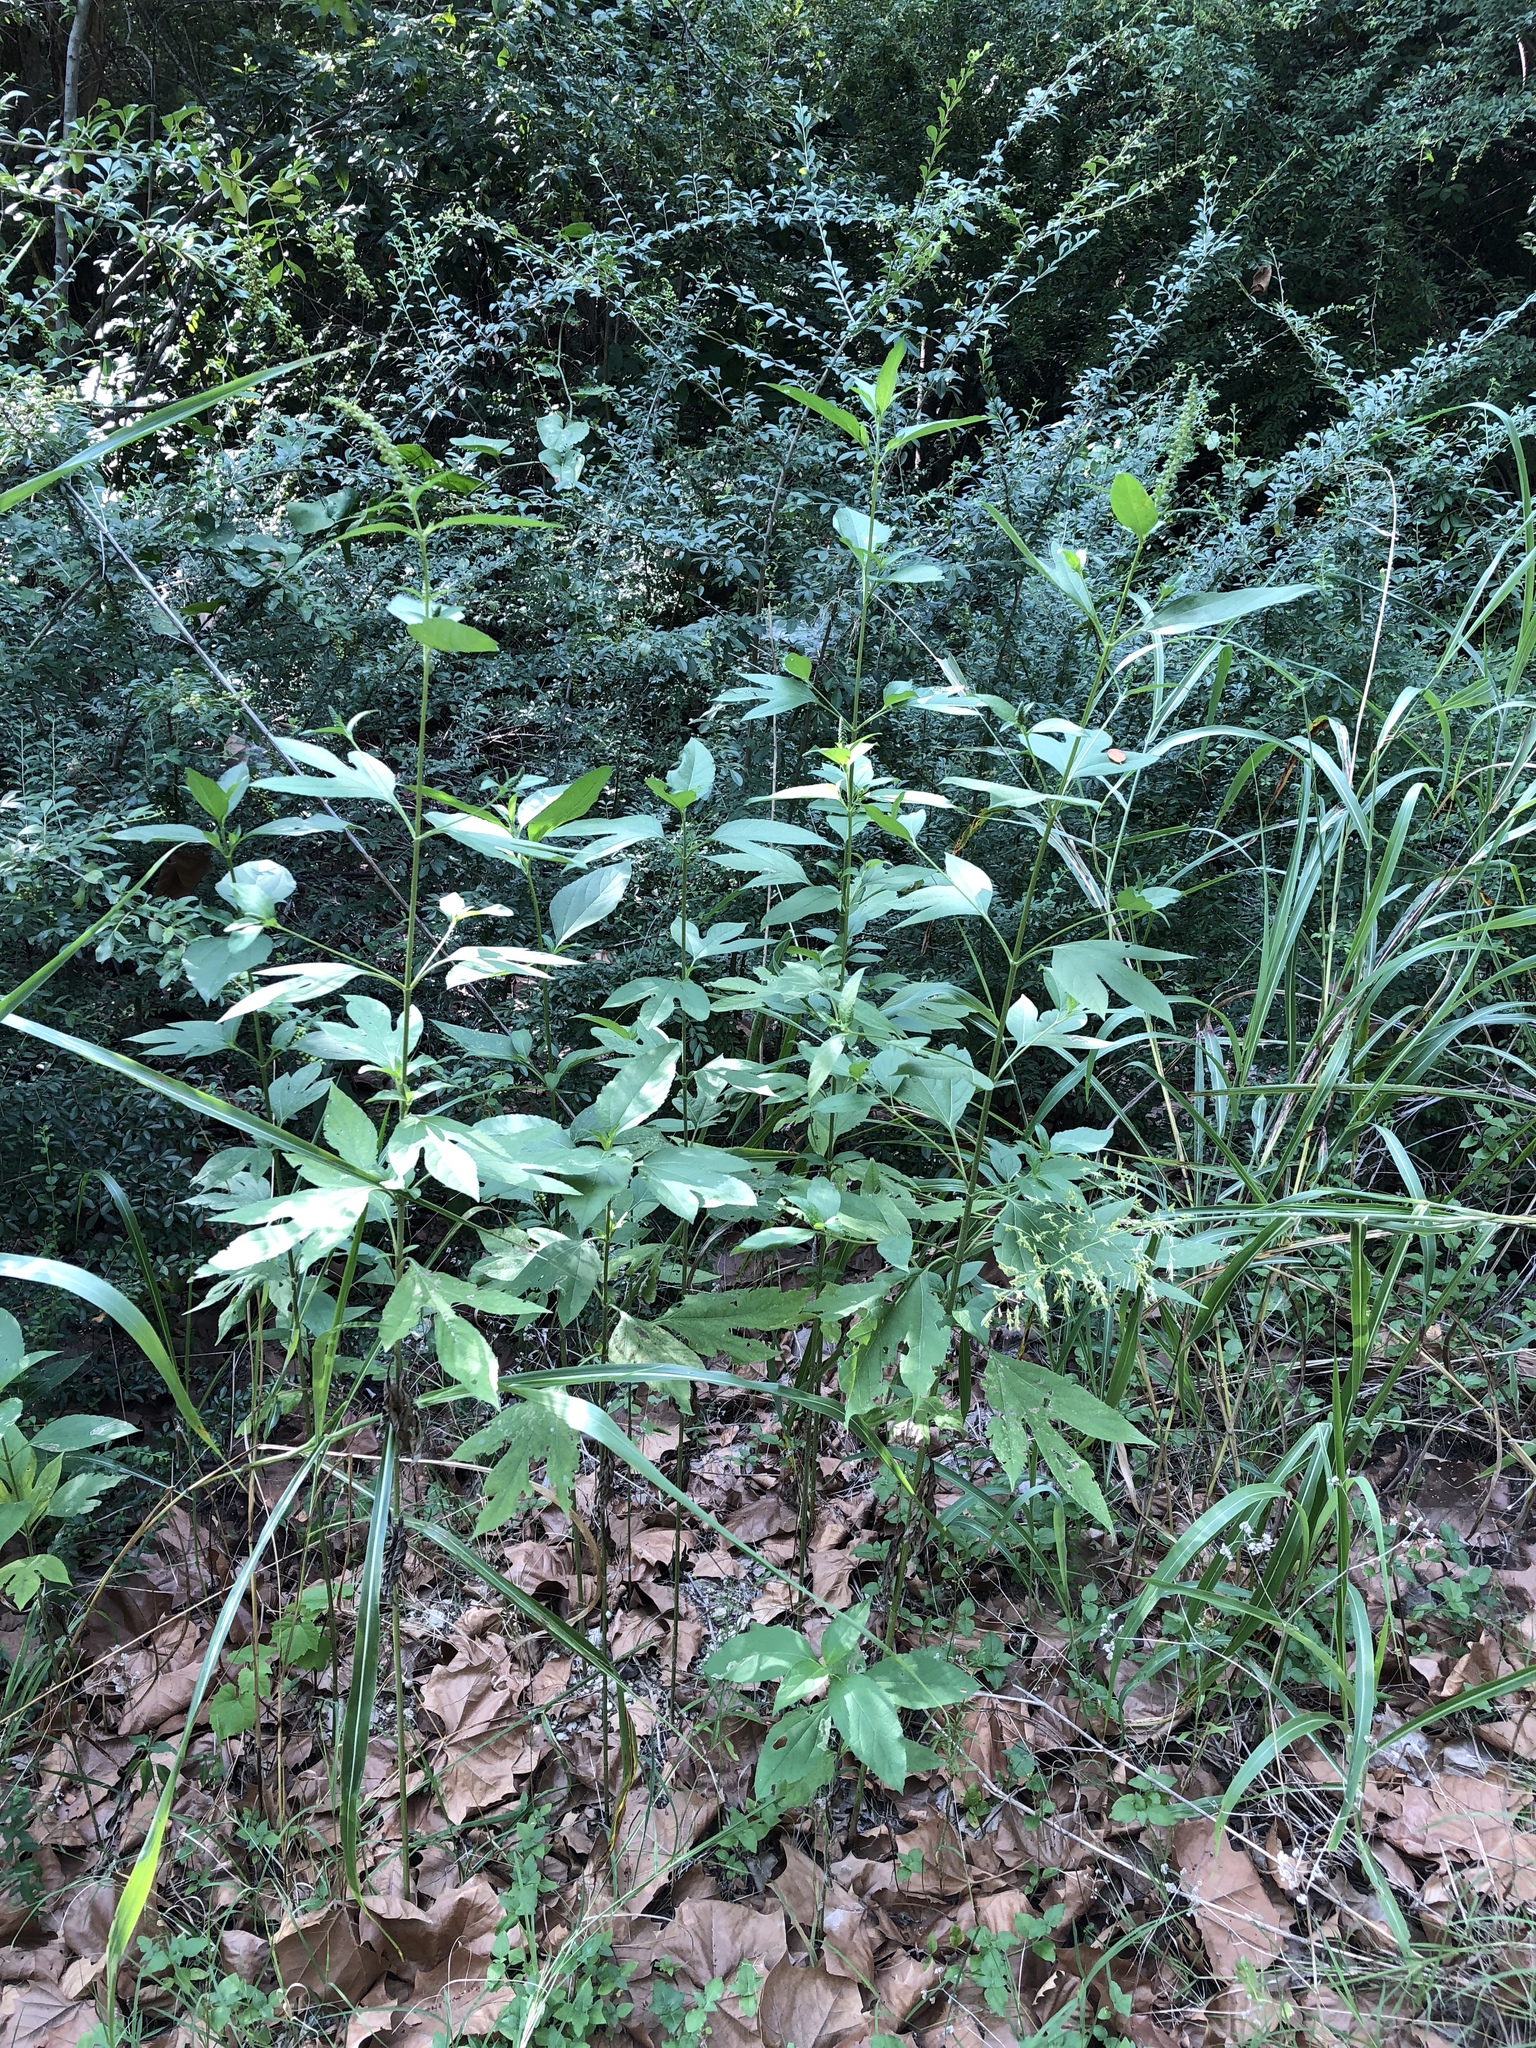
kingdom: Plantae
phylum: Tracheophyta
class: Magnoliopsida
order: Asterales
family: Asteraceae
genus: Ambrosia
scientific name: Ambrosia trifida
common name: Giant ragweed
